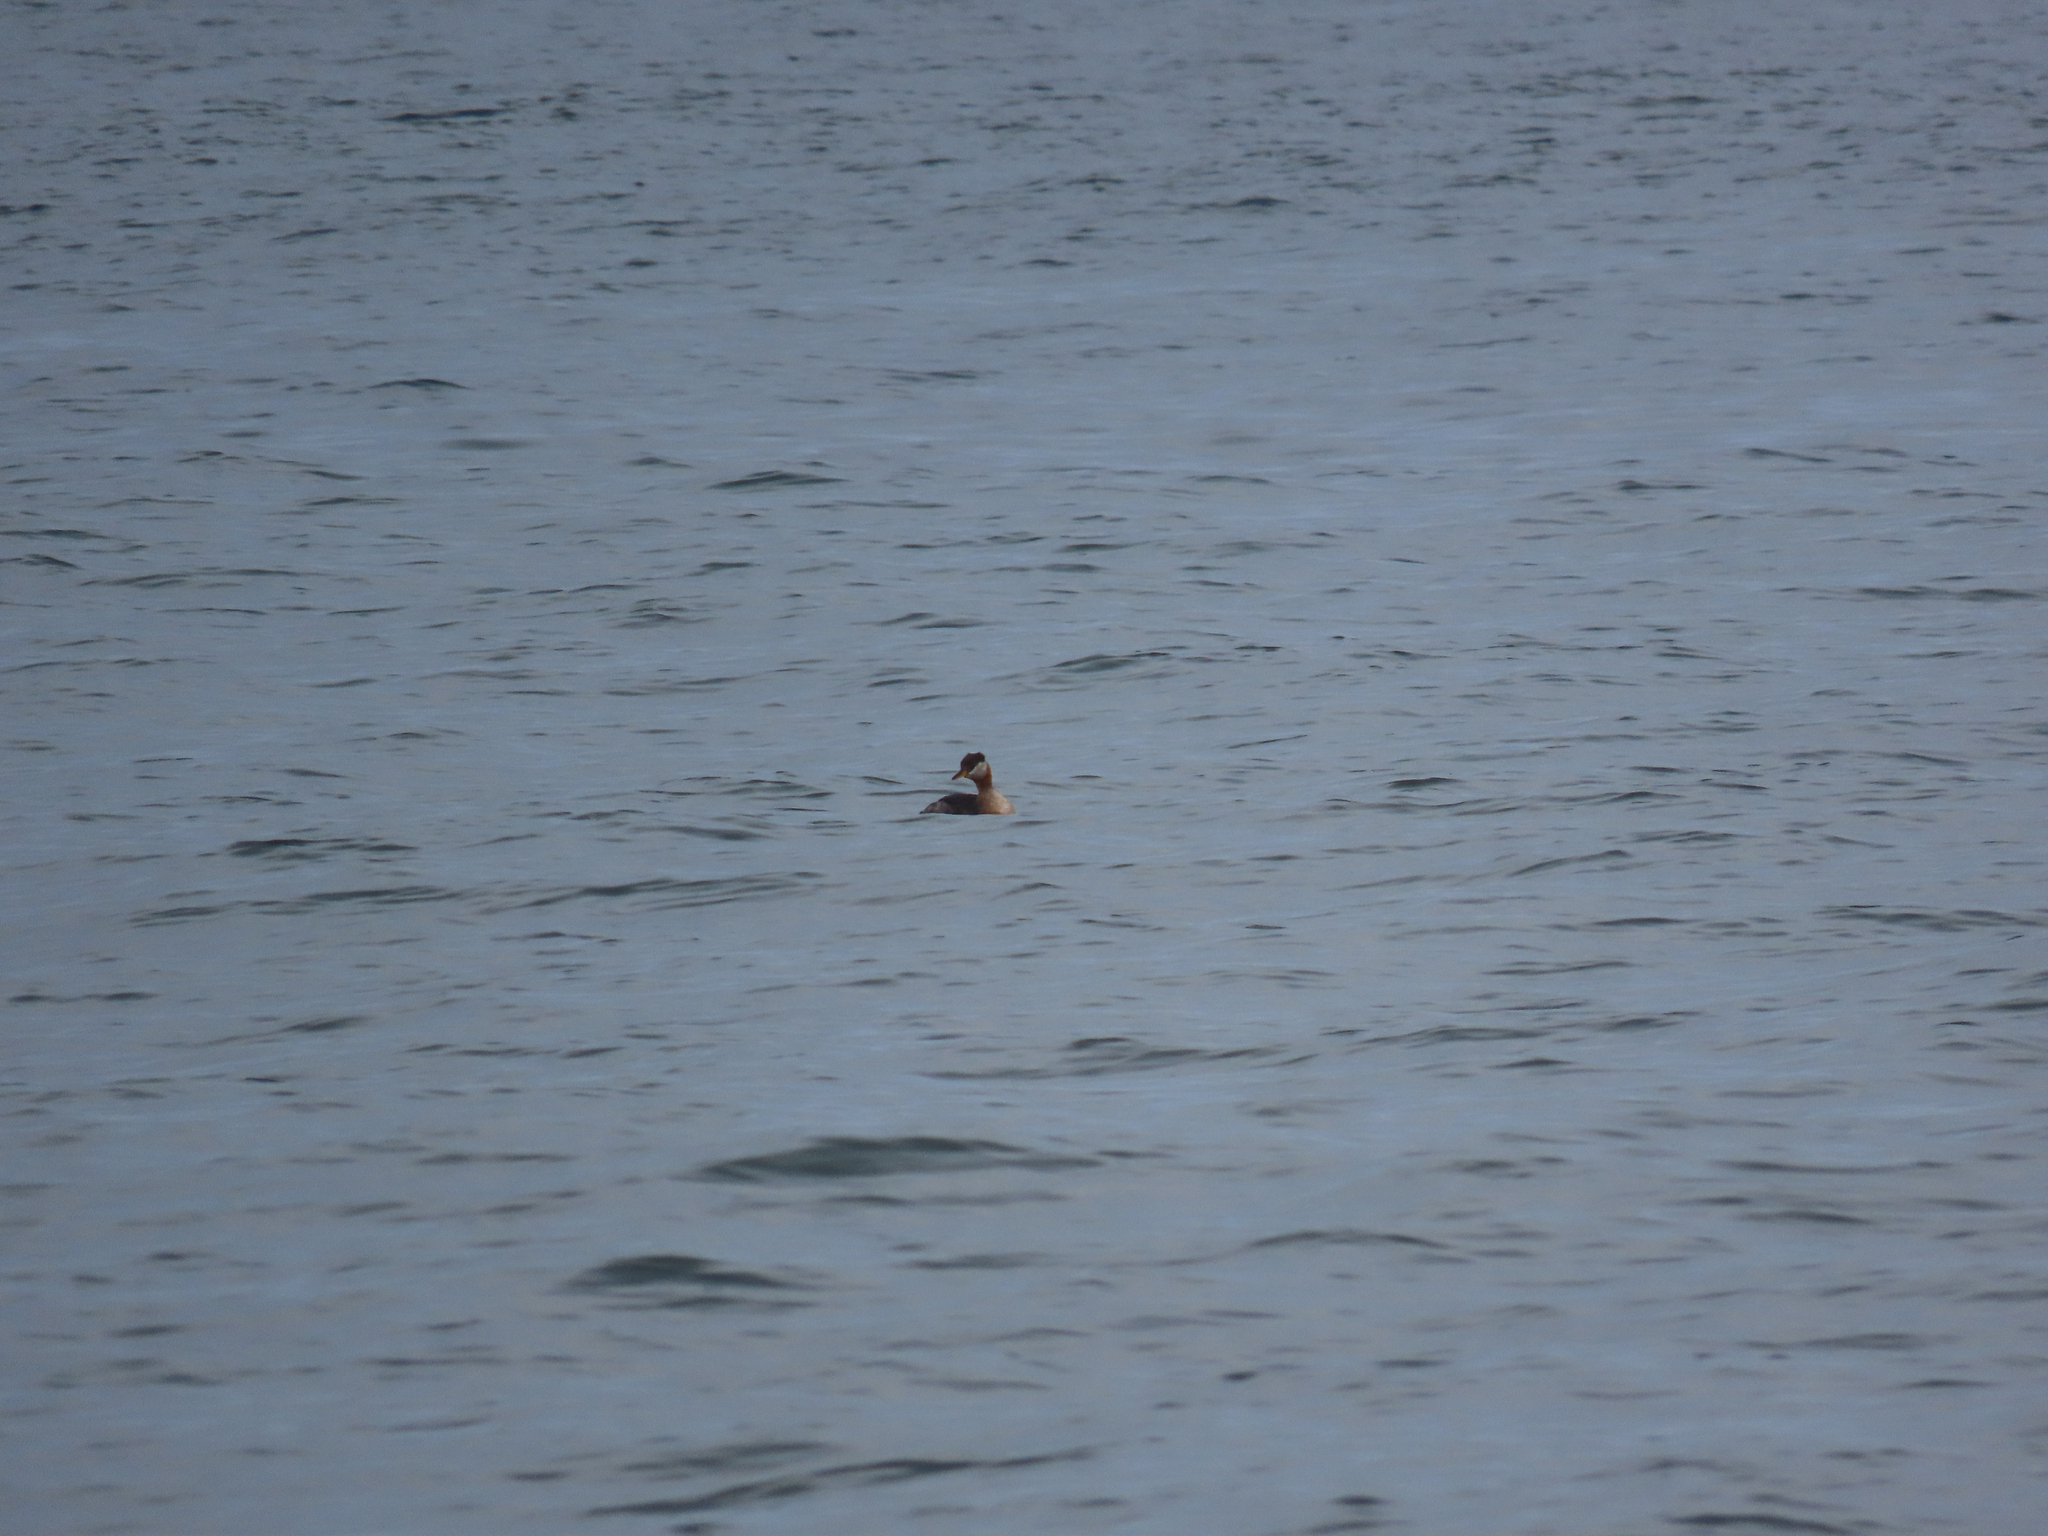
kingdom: Animalia
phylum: Chordata
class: Aves
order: Podicipediformes
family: Podicipedidae
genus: Podiceps
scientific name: Podiceps grisegena
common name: Red-necked grebe
